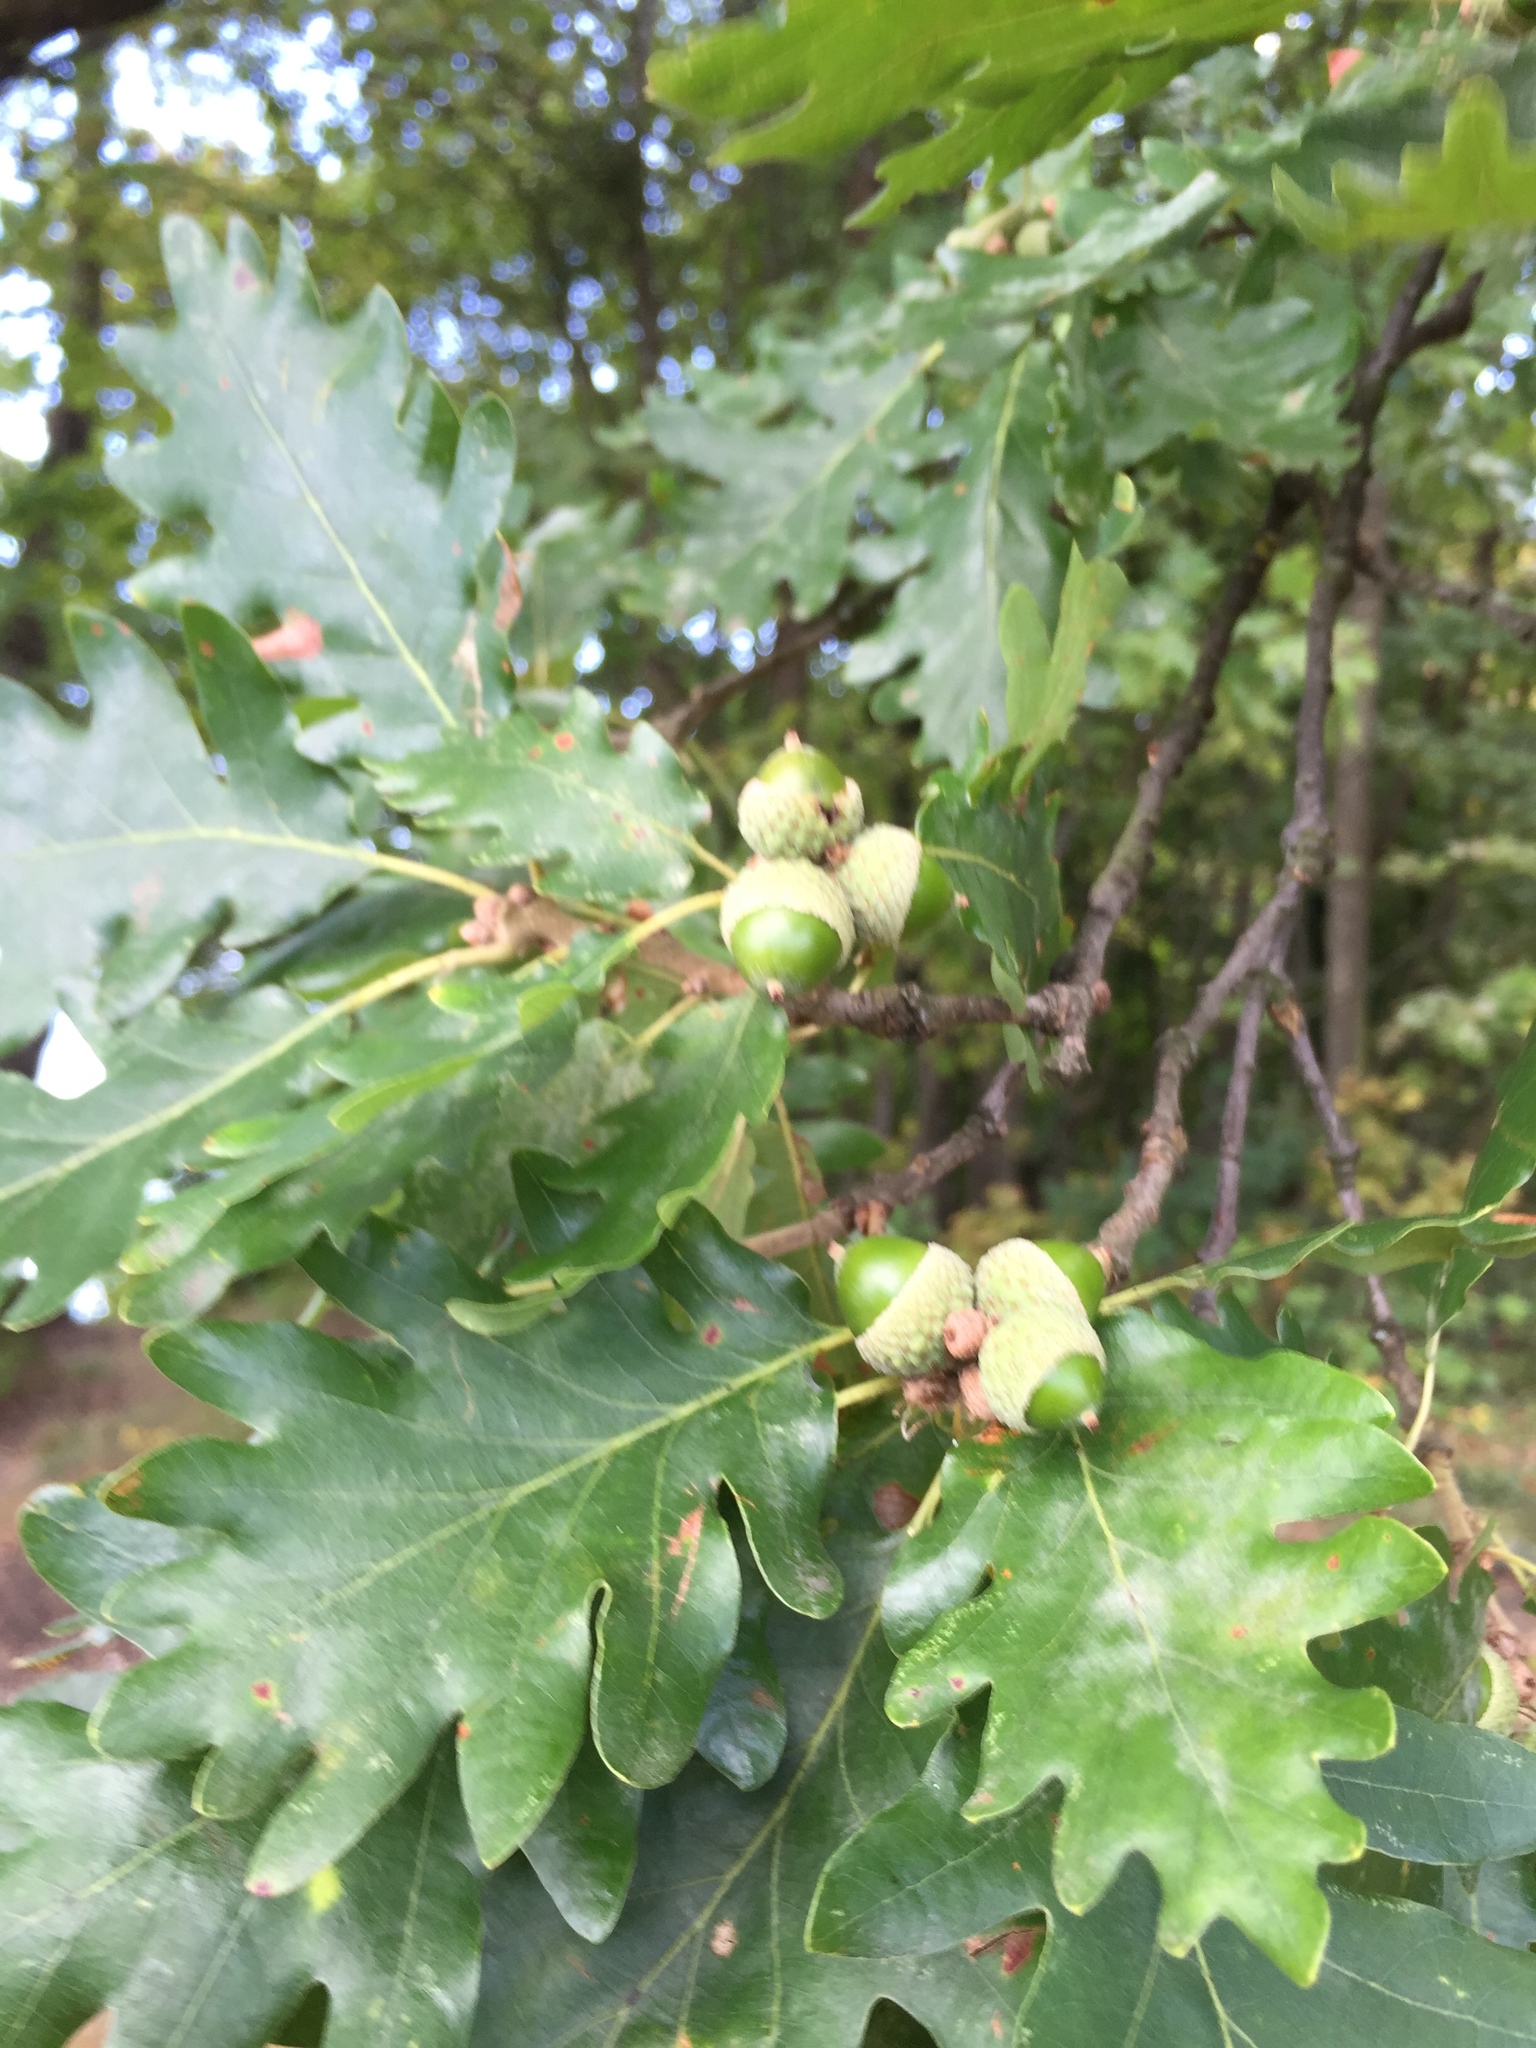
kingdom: Plantae
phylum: Tracheophyta
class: Magnoliopsida
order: Fagales
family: Fagaceae
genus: Quercus
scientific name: Quercus robur
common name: Pedunculate oak
